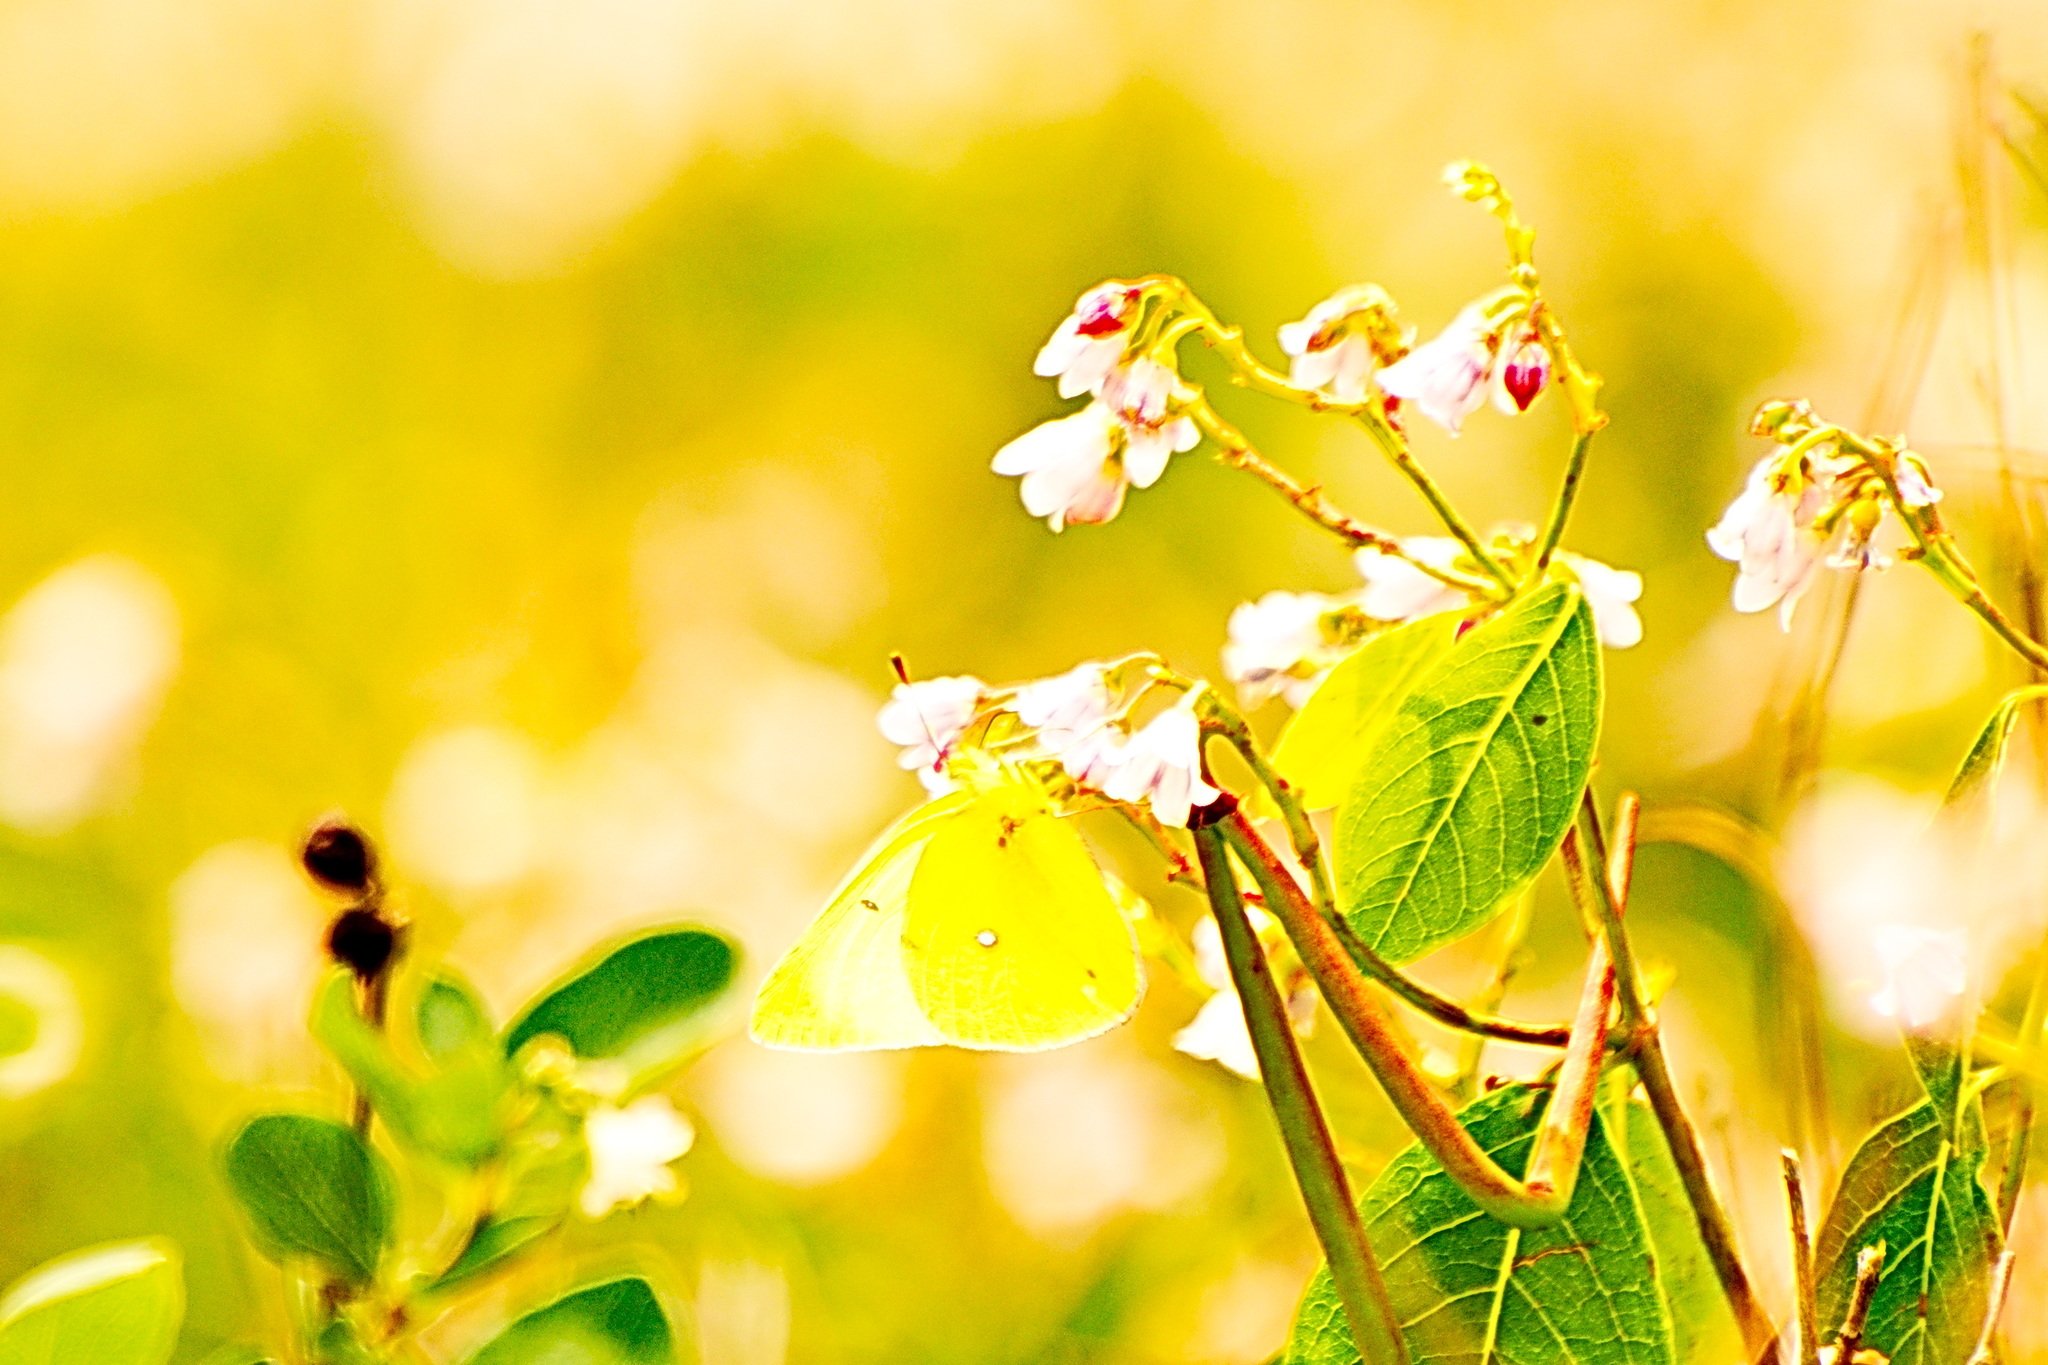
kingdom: Animalia
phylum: Arthropoda
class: Insecta
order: Lepidoptera
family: Pieridae
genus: Colias
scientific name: Colias philodice
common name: Clouded sulphur
